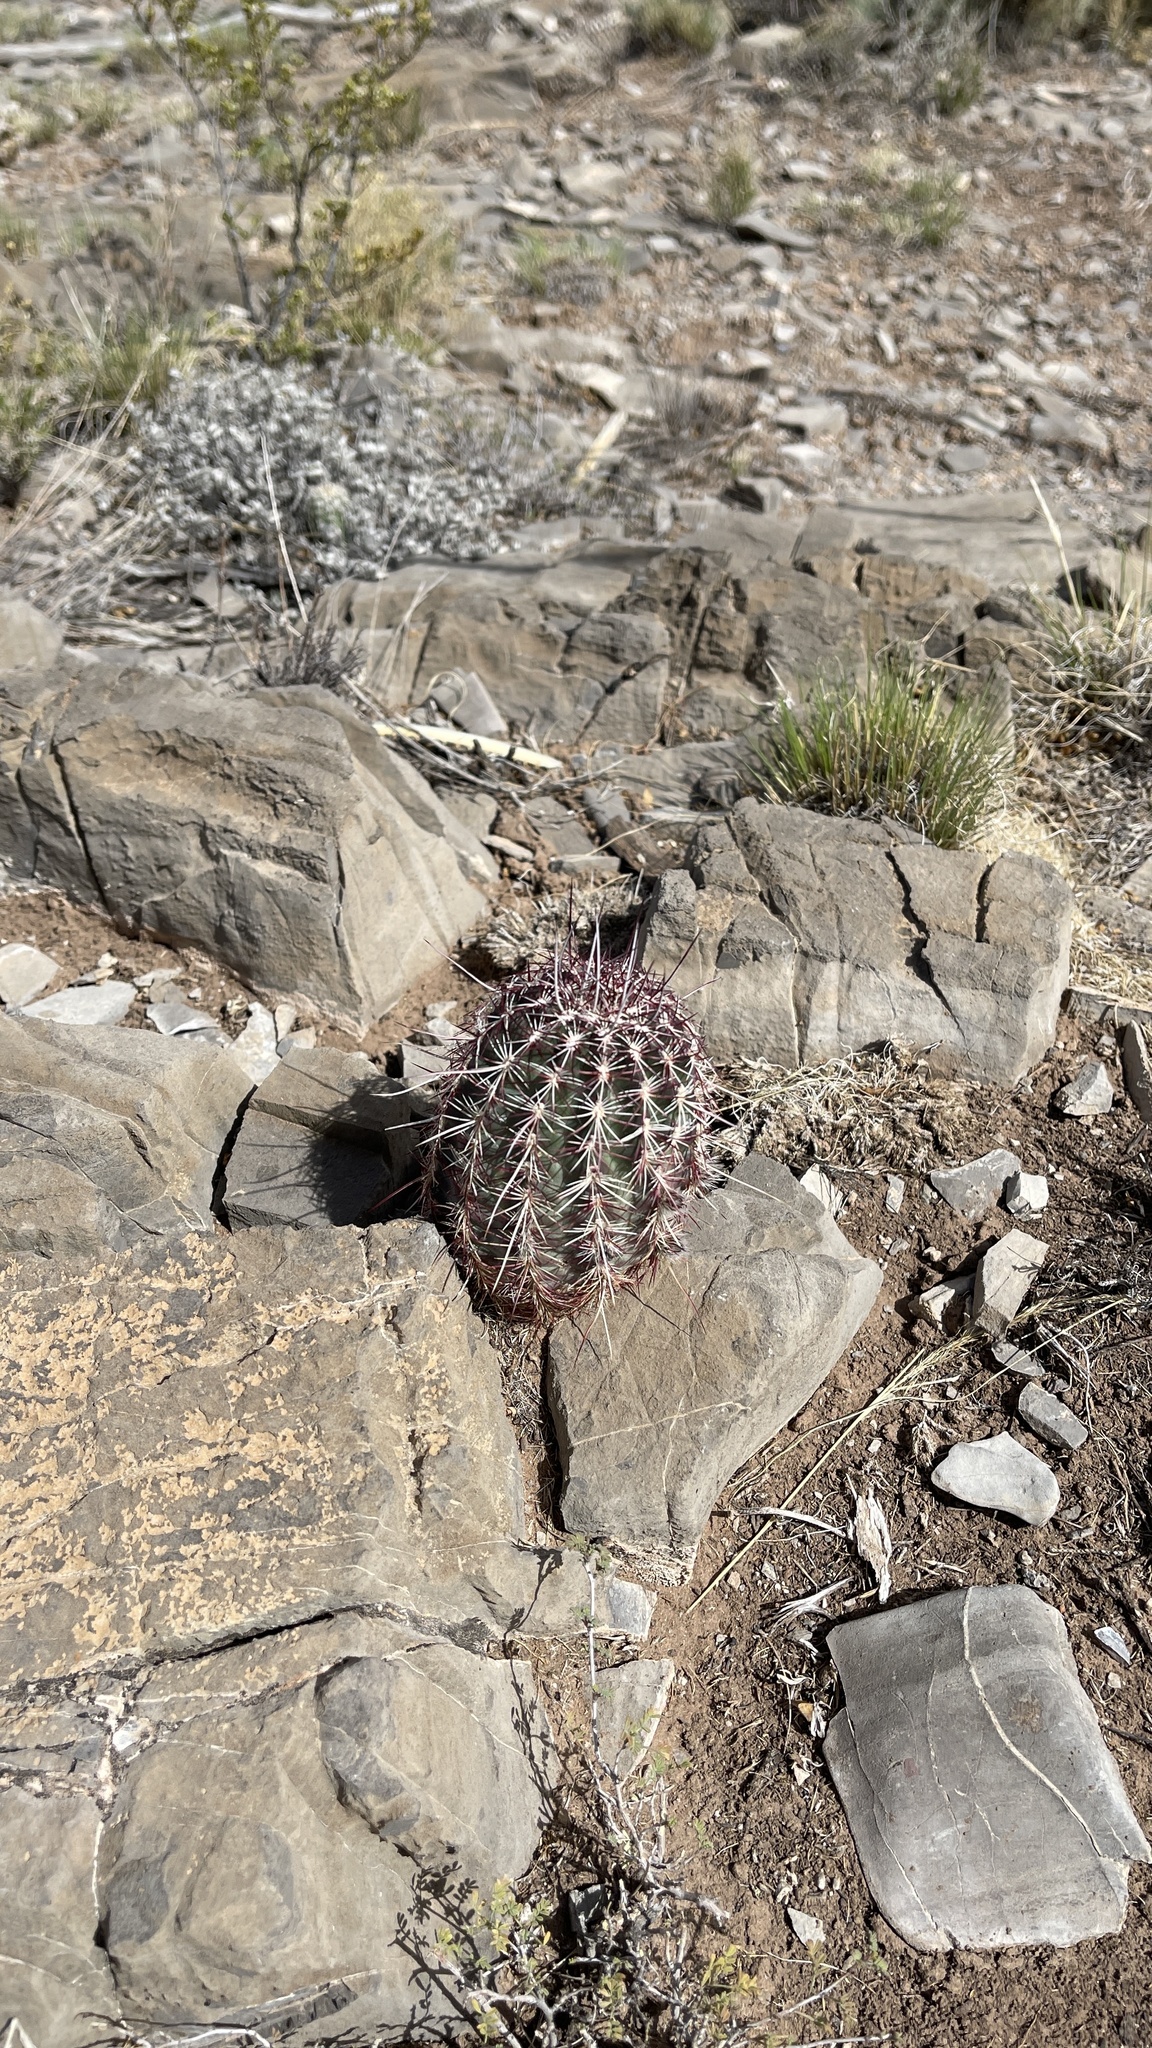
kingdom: Plantae
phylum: Tracheophyta
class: Magnoliopsida
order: Caryophyllales
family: Cactaceae
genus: Echinocereus
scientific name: Echinocereus viridiflorus
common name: Nylon hedgehog cactus
